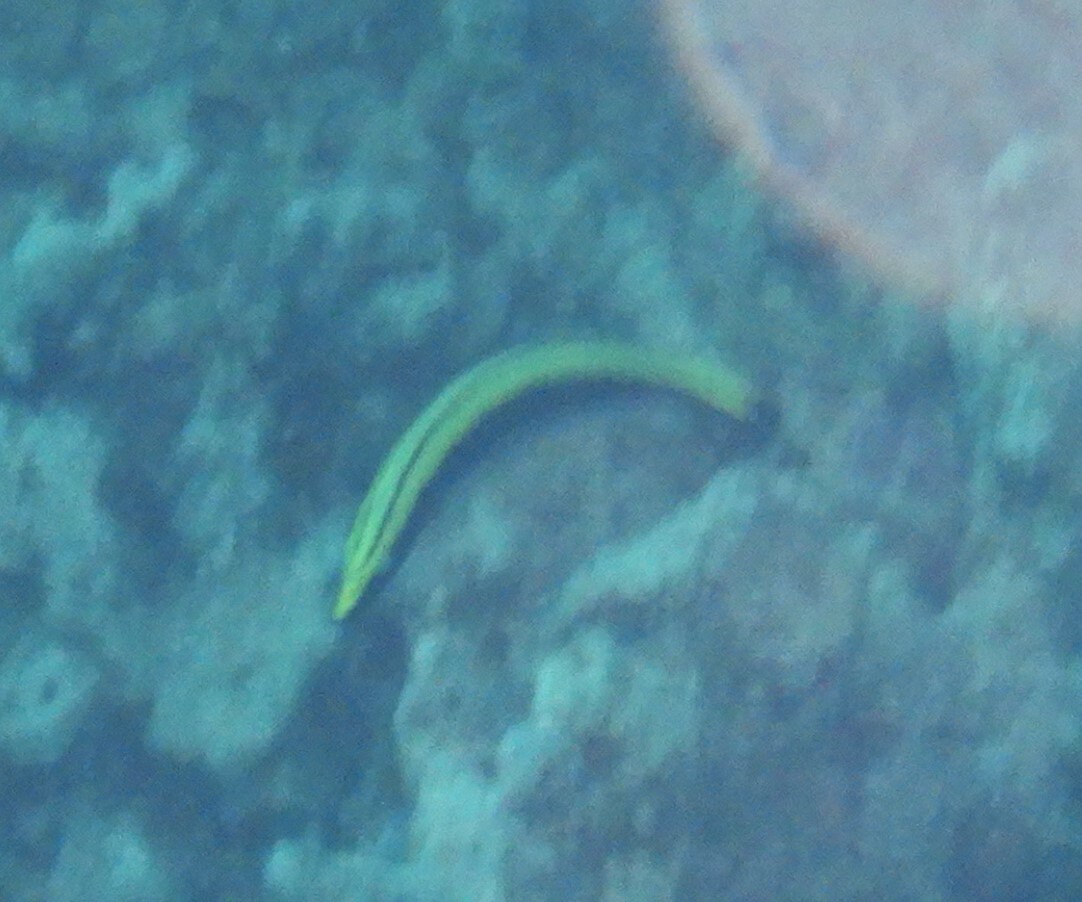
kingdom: Animalia
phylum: Chordata
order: Perciformes
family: Labridae
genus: Hologymnosus
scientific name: Hologymnosus annulatus
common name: Ring wrasse
